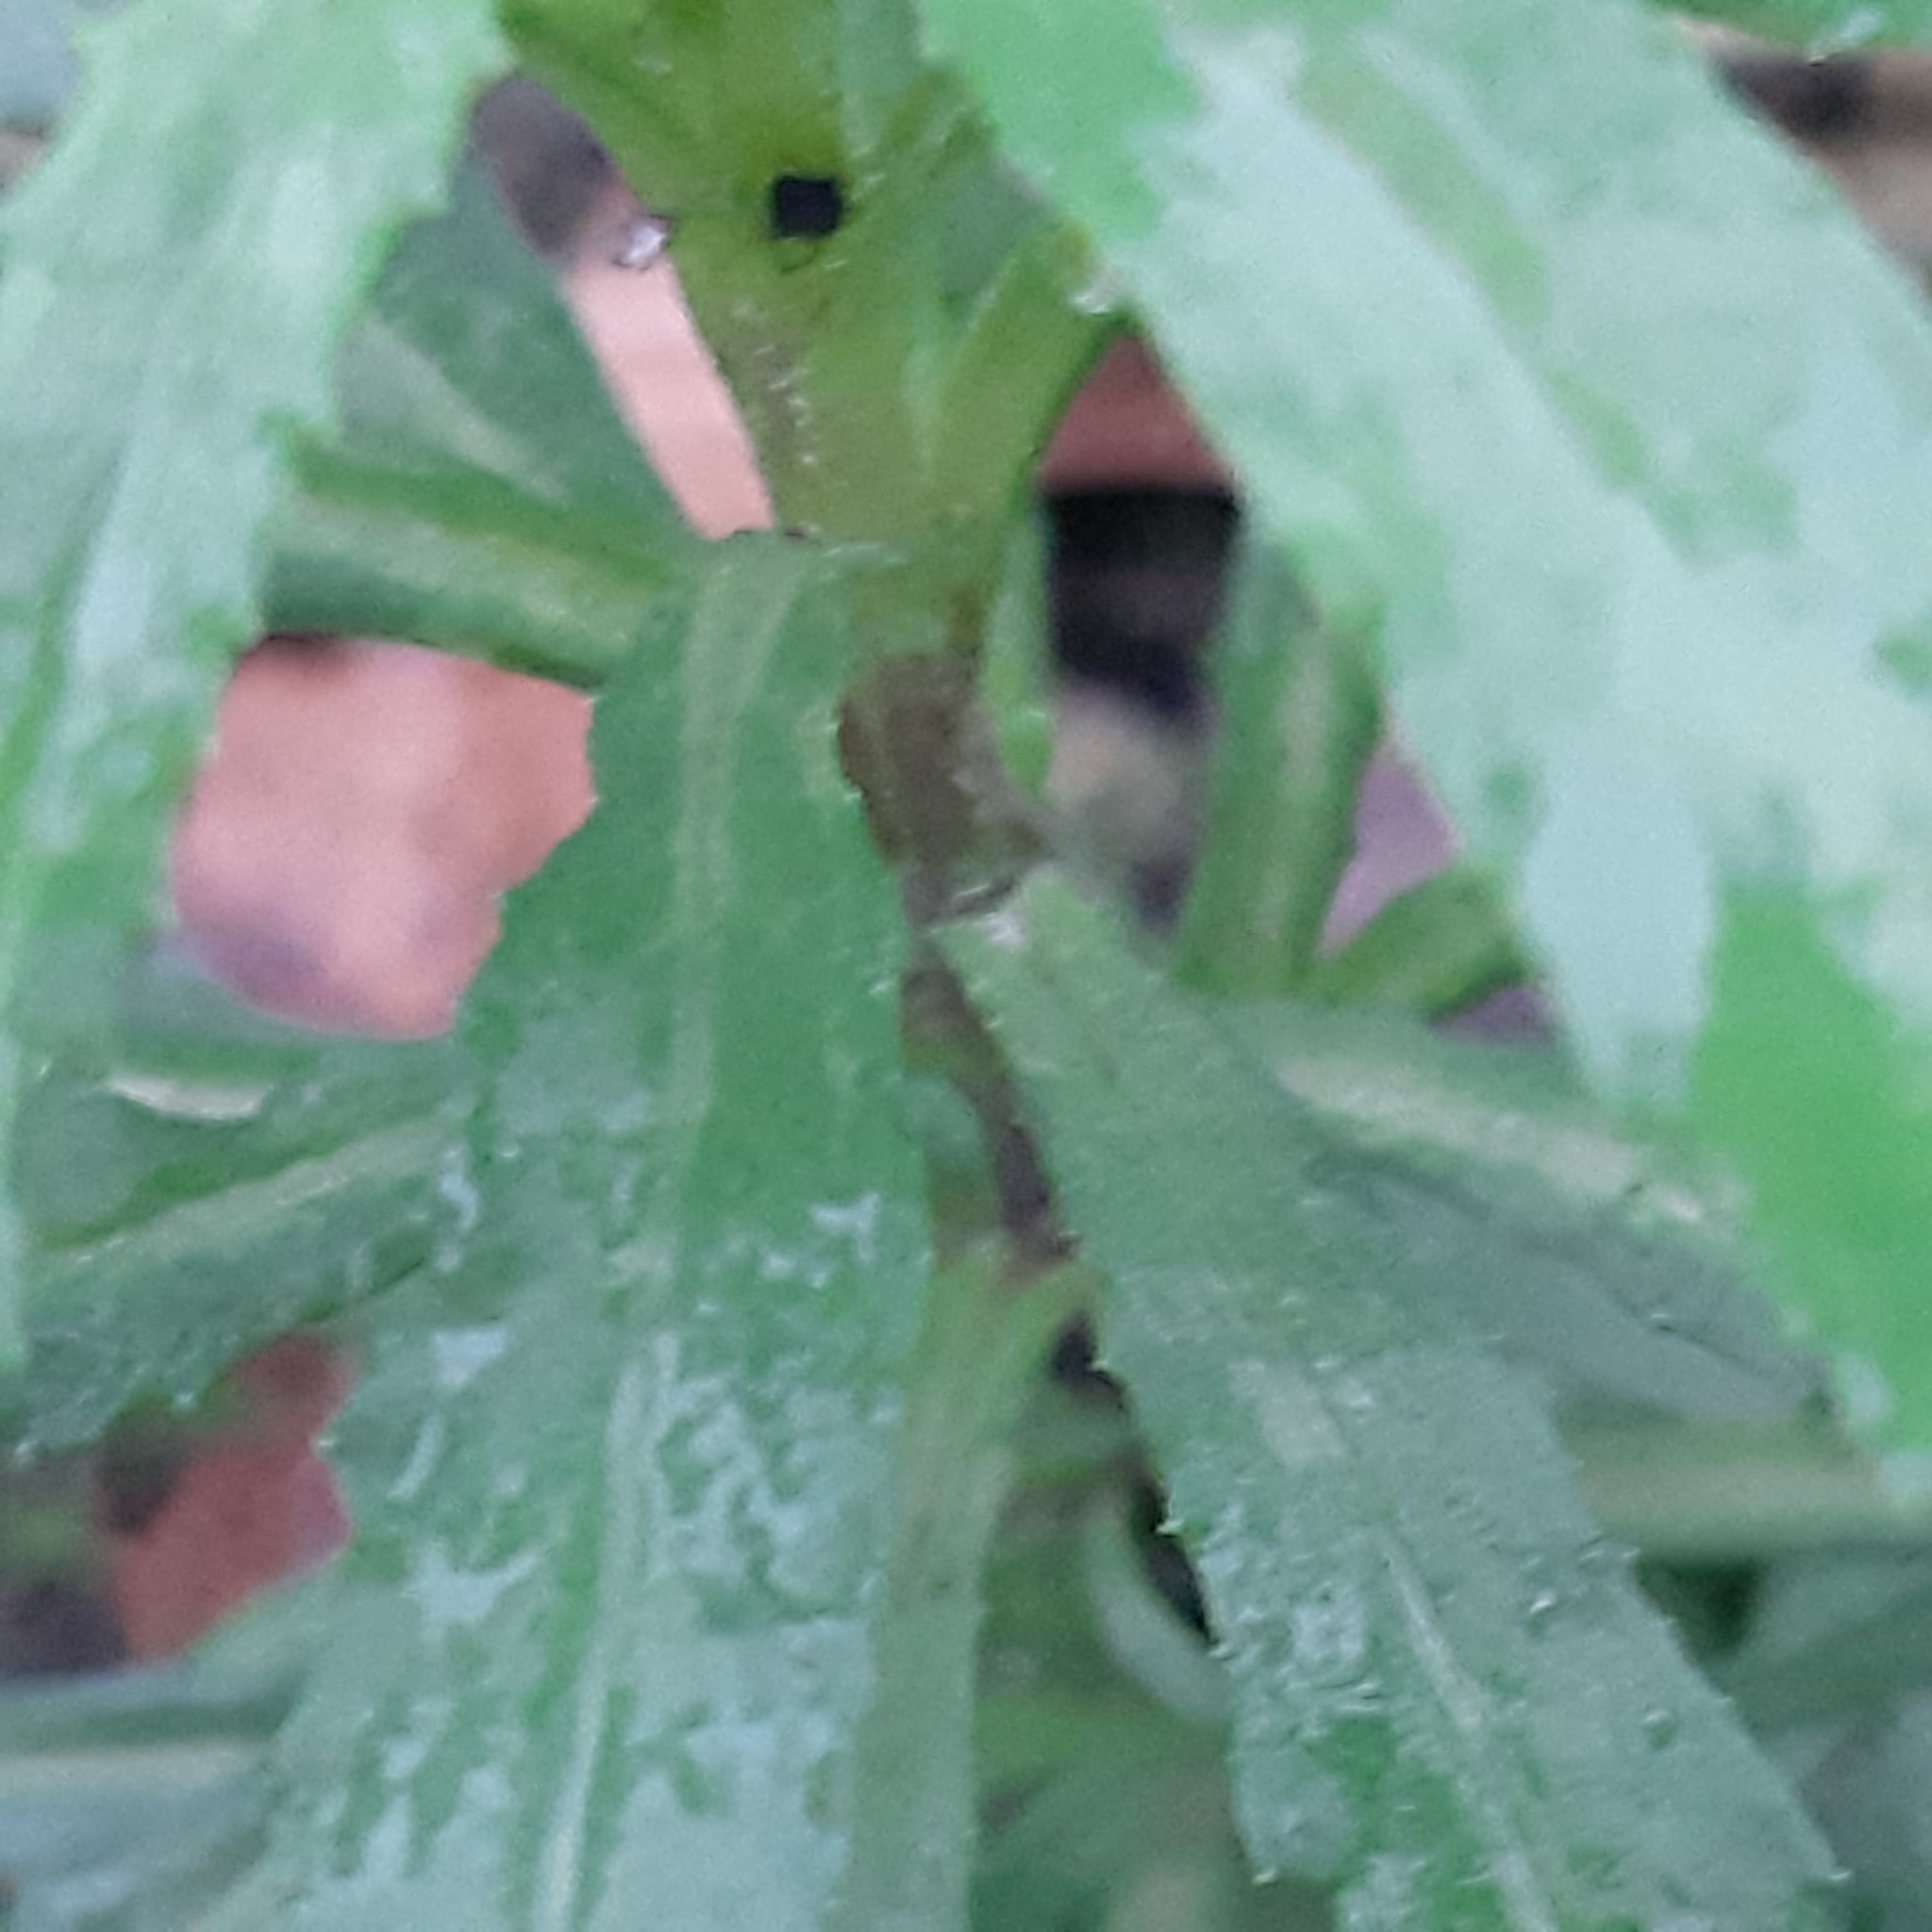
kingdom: Plantae
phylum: Tracheophyta
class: Magnoliopsida
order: Asterales
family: Asteraceae
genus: Senecio
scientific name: Senecio inaequidens
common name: Narrow-leaved ragwort
